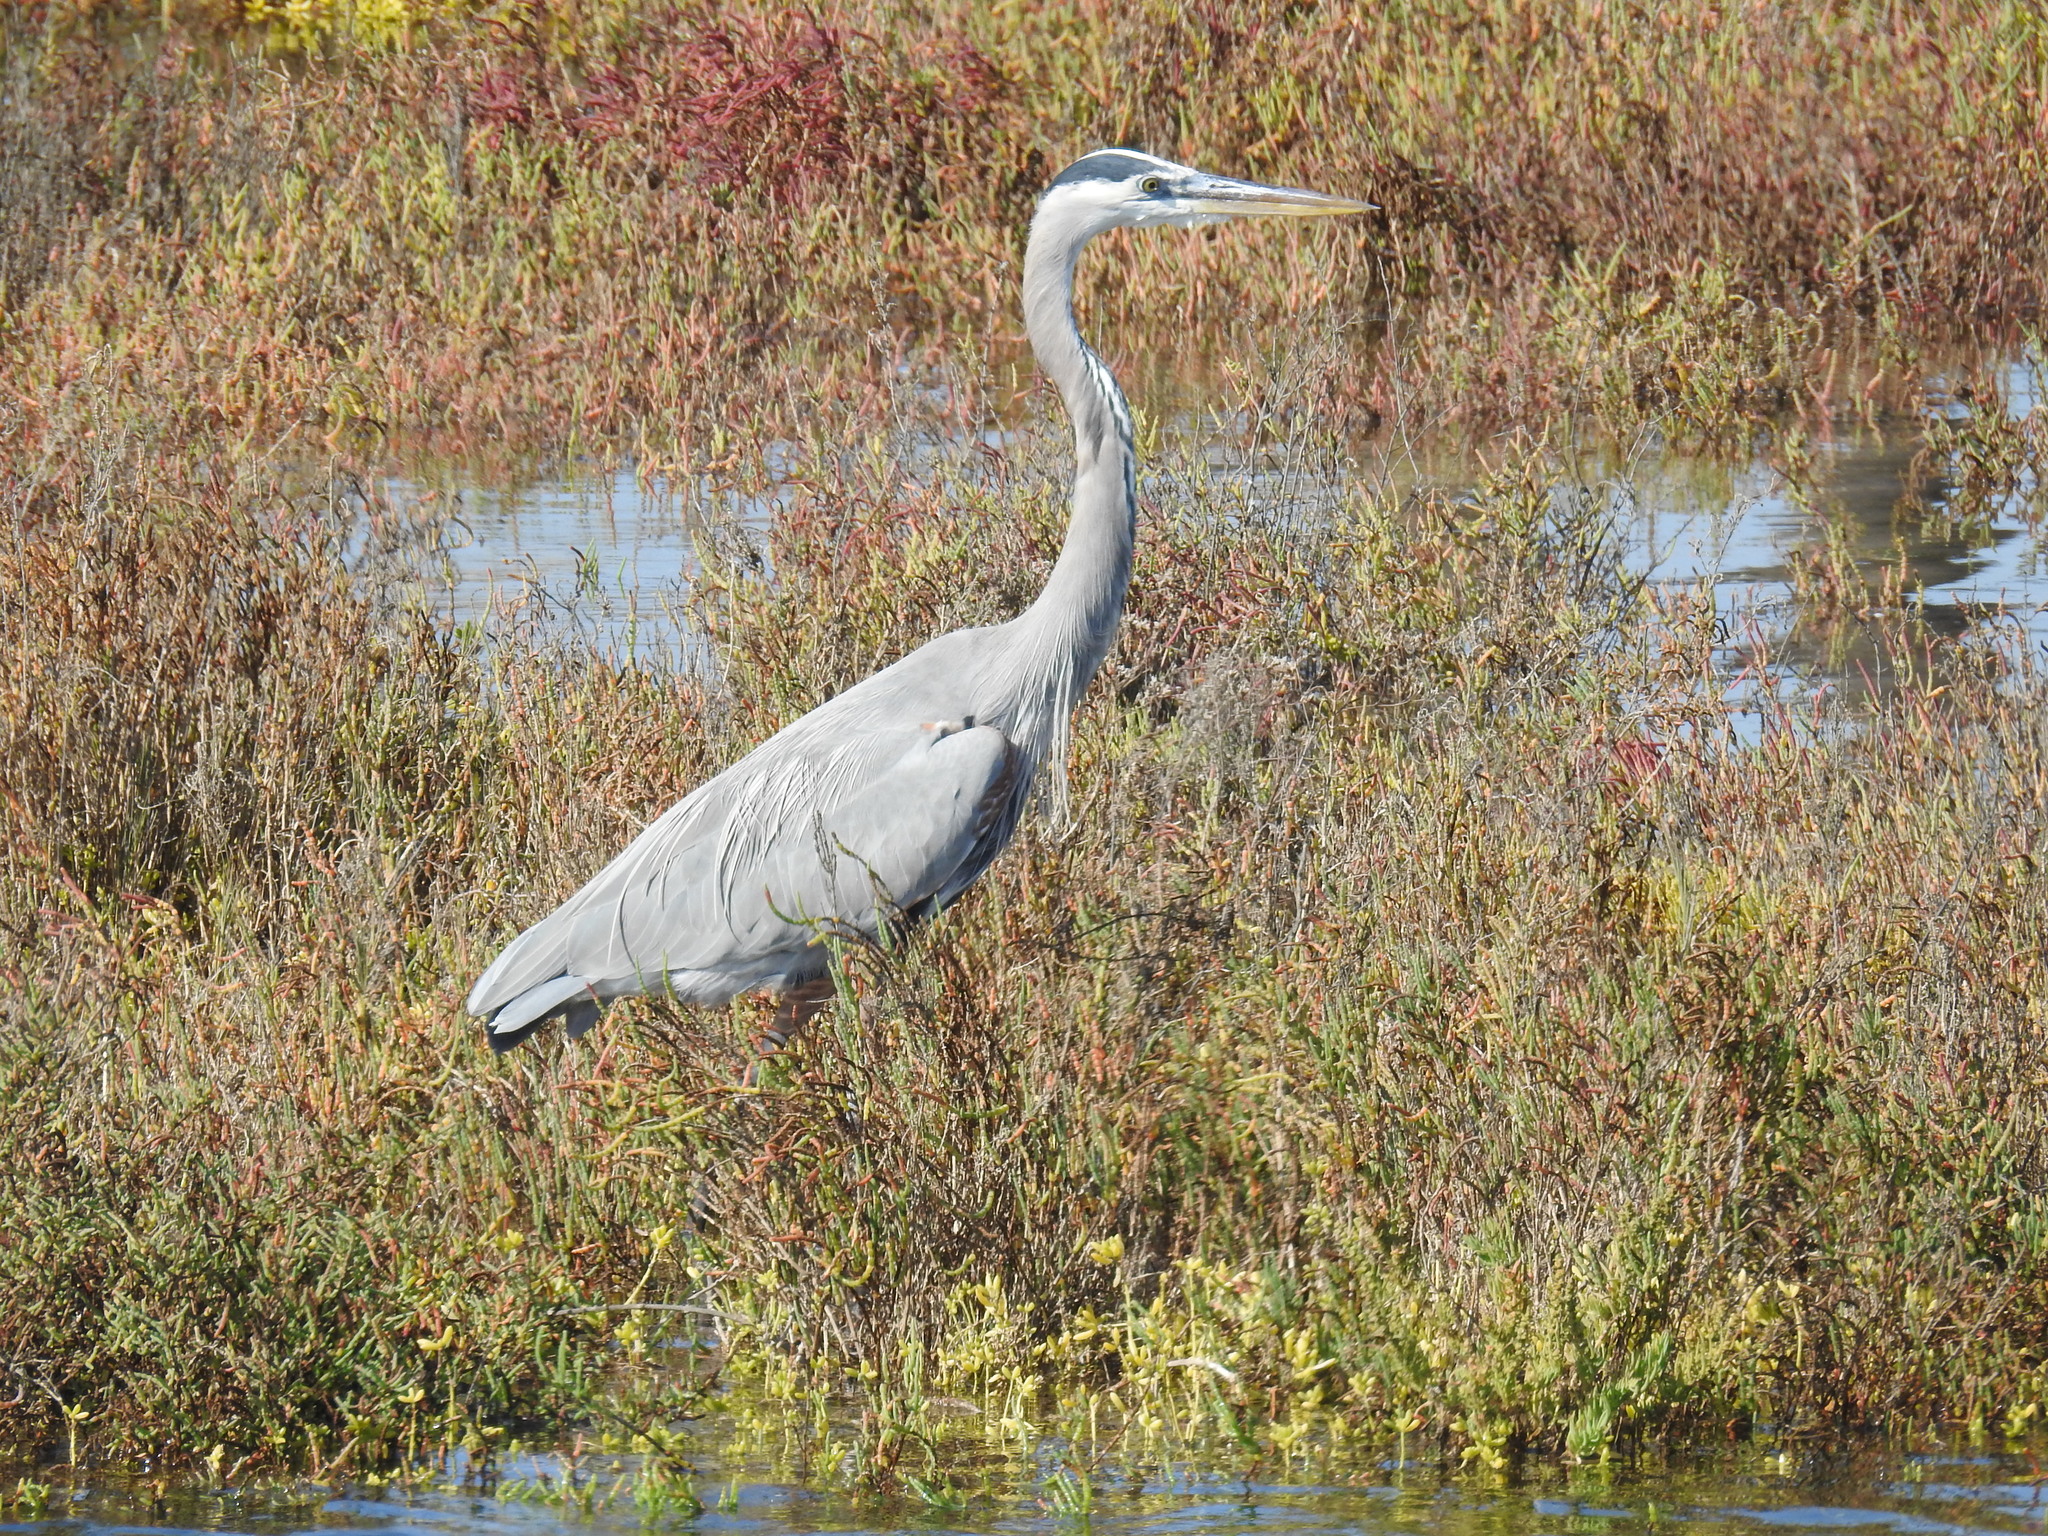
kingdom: Animalia
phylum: Chordata
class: Aves
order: Pelecaniformes
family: Ardeidae
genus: Ardea
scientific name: Ardea herodias
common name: Great blue heron
